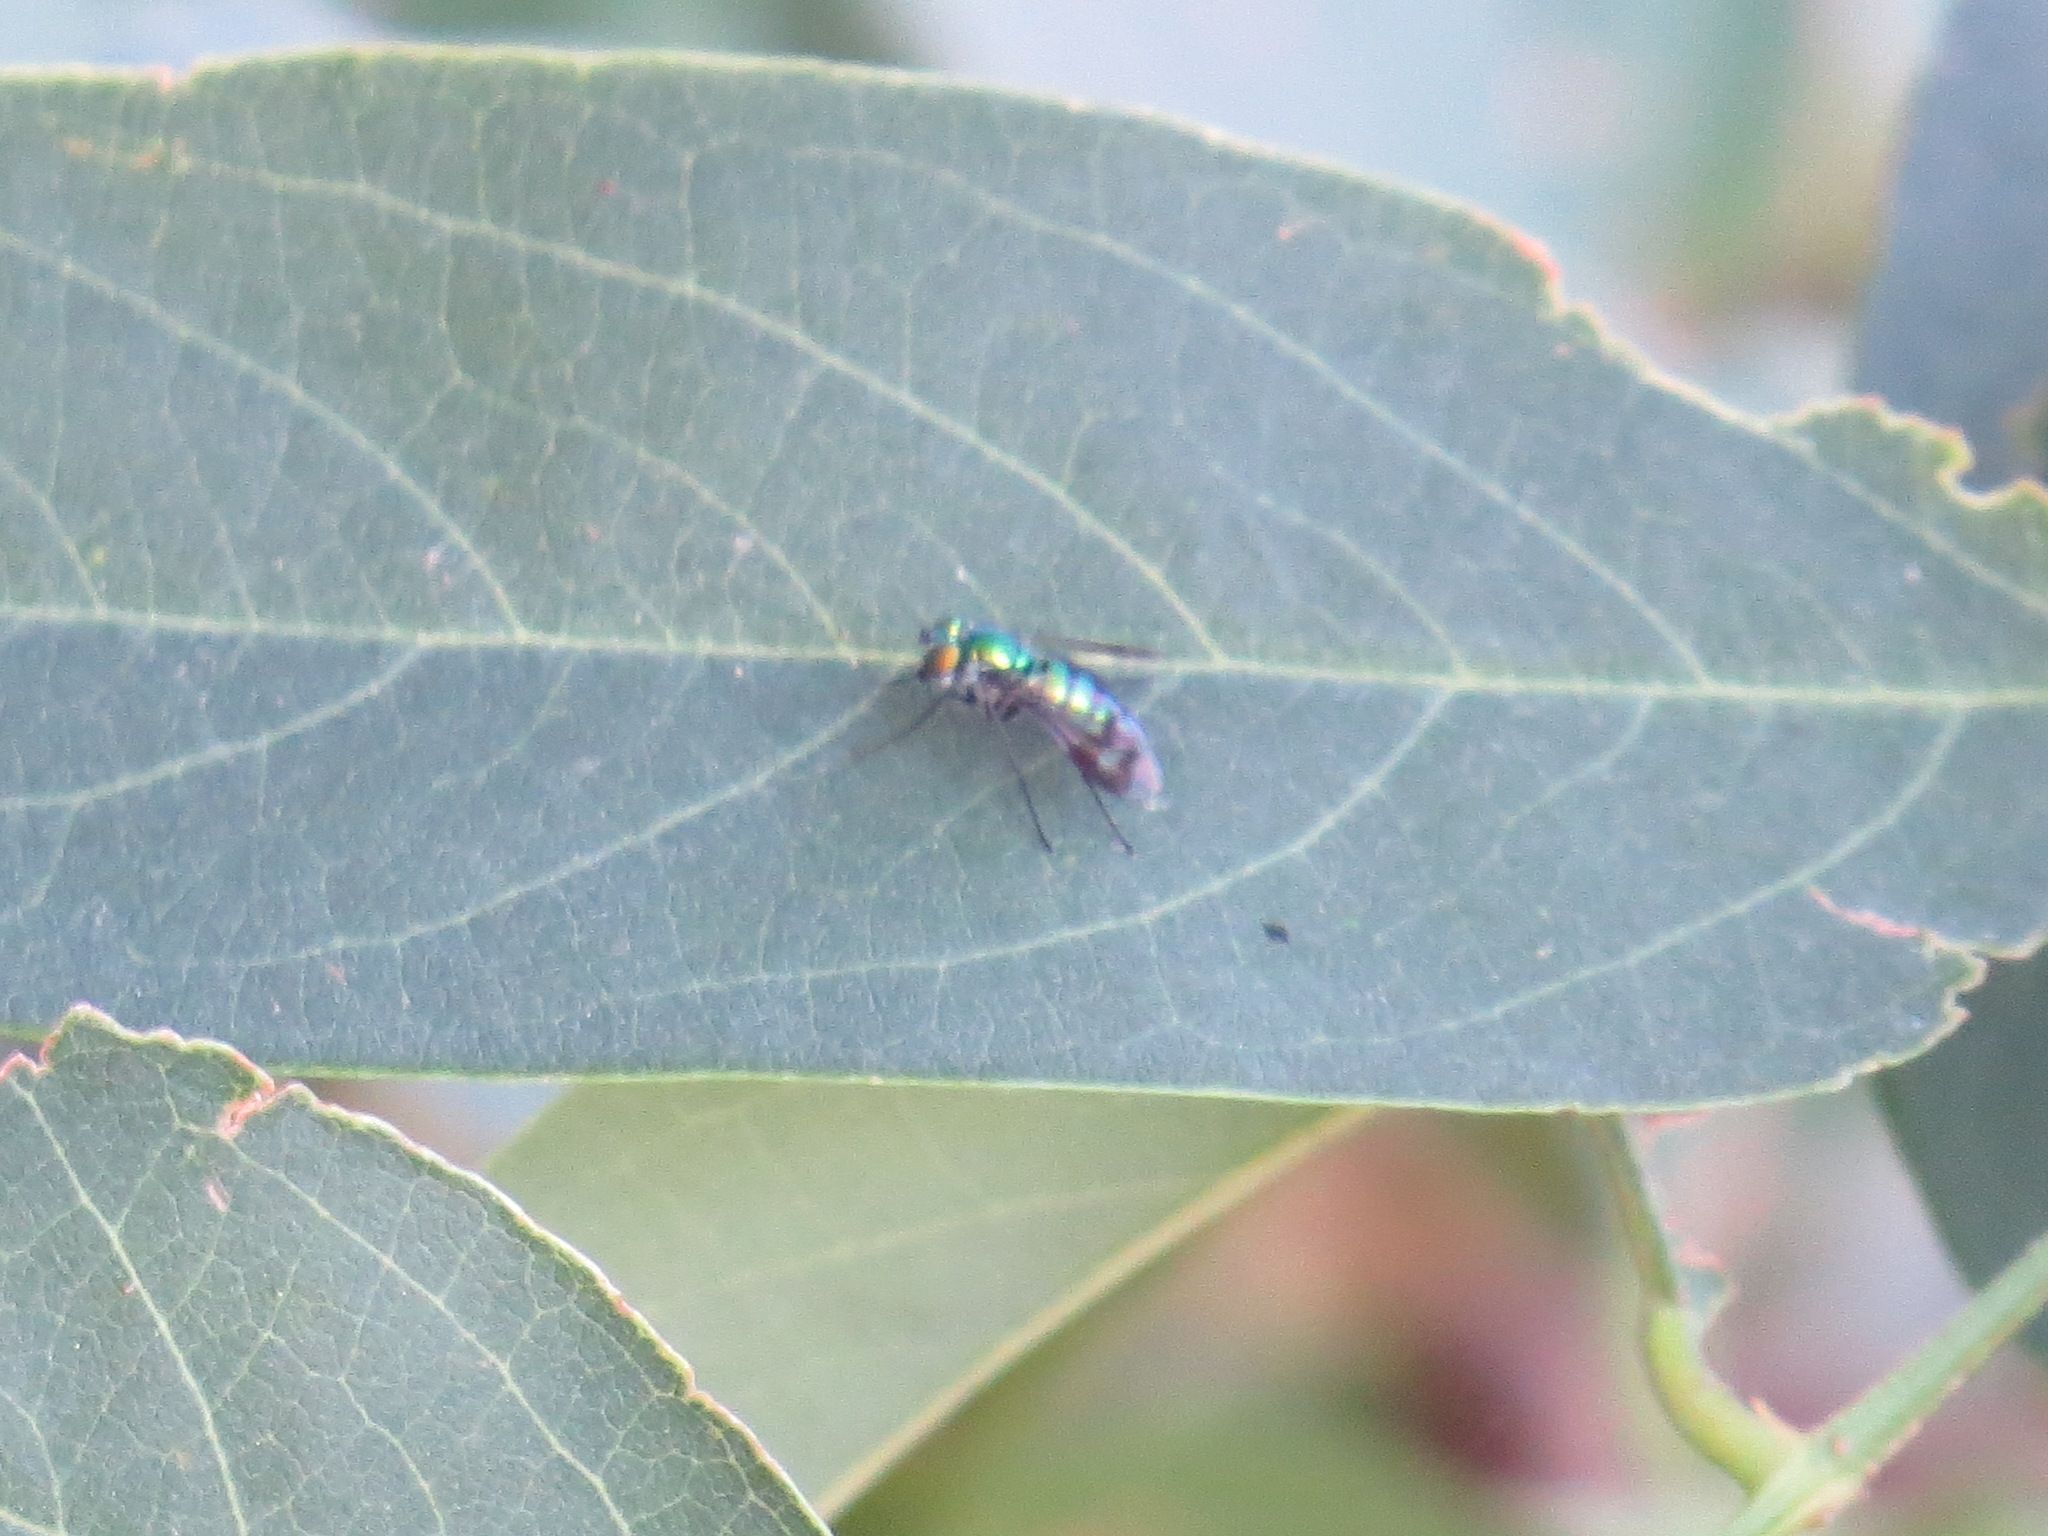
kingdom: Animalia
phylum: Arthropoda
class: Insecta
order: Diptera
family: Dolichopodidae
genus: Condylostylus
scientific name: Condylostylus occidentalis
